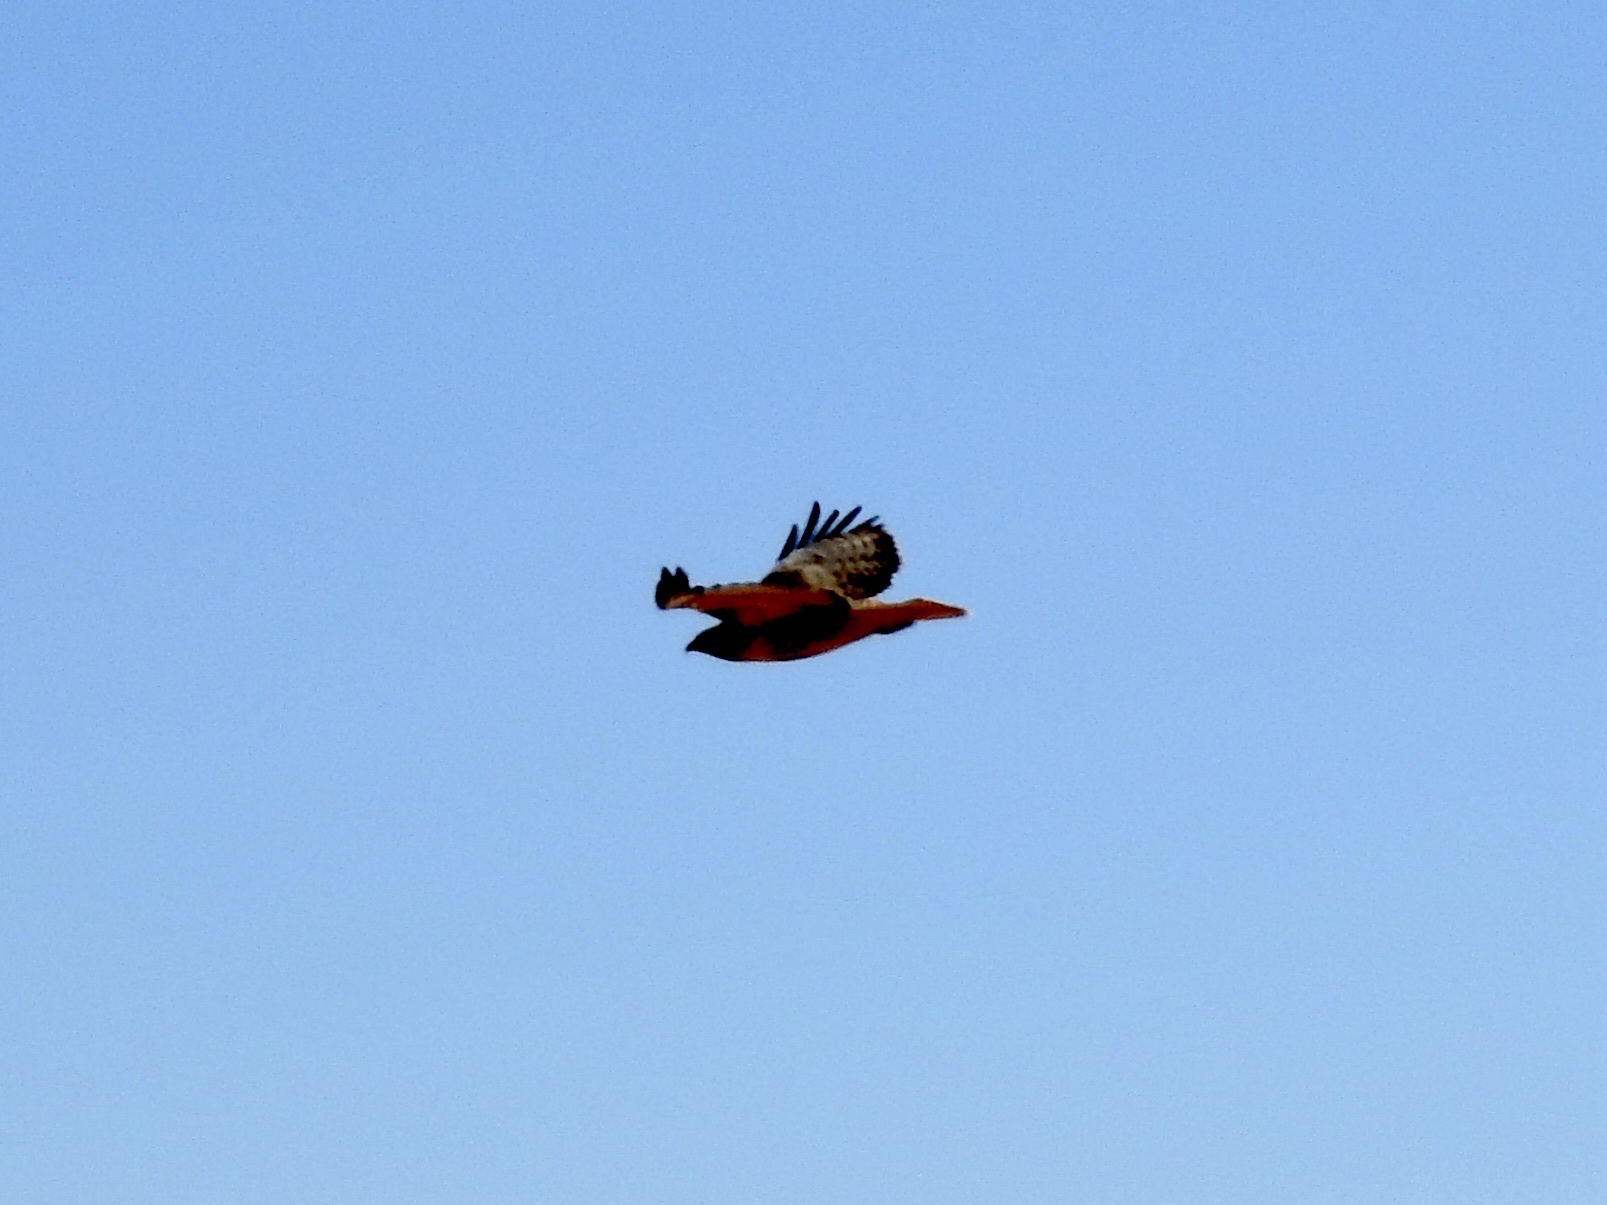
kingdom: Animalia
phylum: Chordata
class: Aves
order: Accipitriformes
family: Accipitridae
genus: Buteo
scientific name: Buteo jamaicensis
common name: Red-tailed hawk
